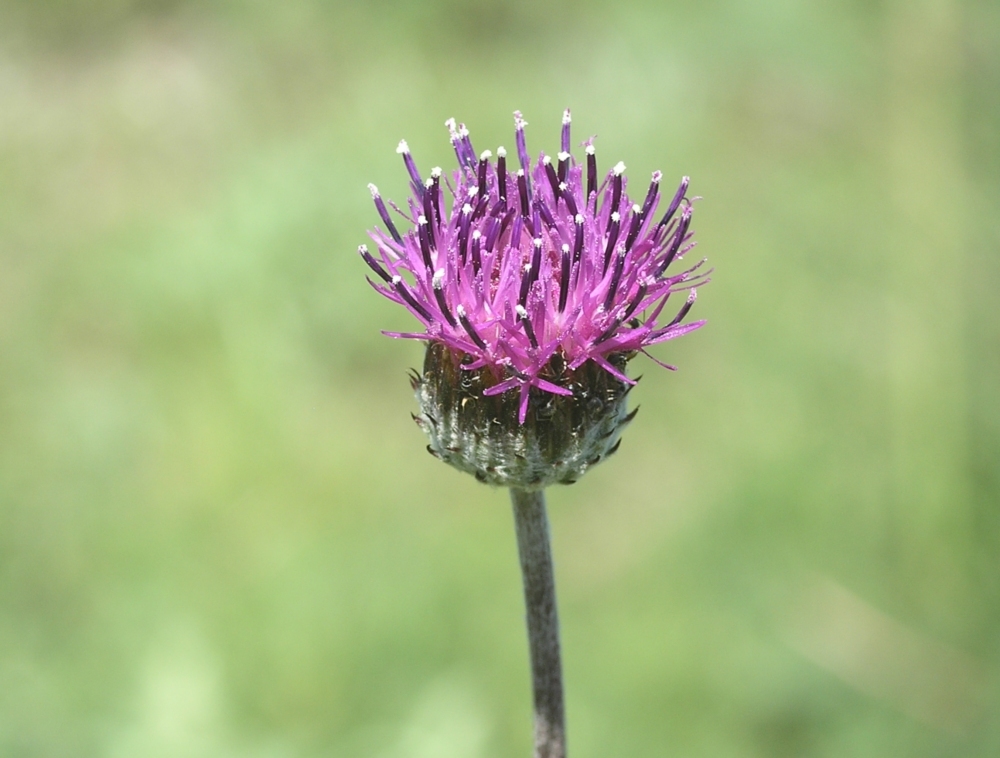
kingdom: Plantae
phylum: Tracheophyta
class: Magnoliopsida
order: Asterales
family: Asteraceae
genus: Jurinea
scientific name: Jurinea roegneri
